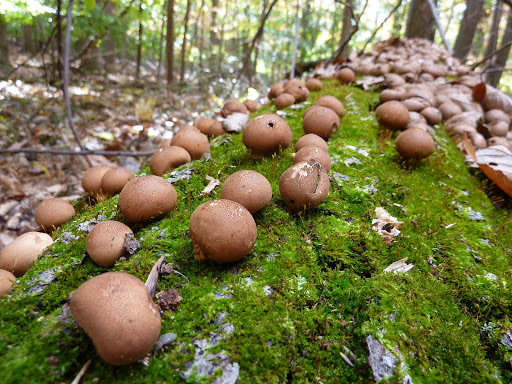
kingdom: Fungi
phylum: Basidiomycota
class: Agaricomycetes
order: Agaricales
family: Lycoperdaceae
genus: Apioperdon
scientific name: Apioperdon pyriforme
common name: Pear-shaped puffball
